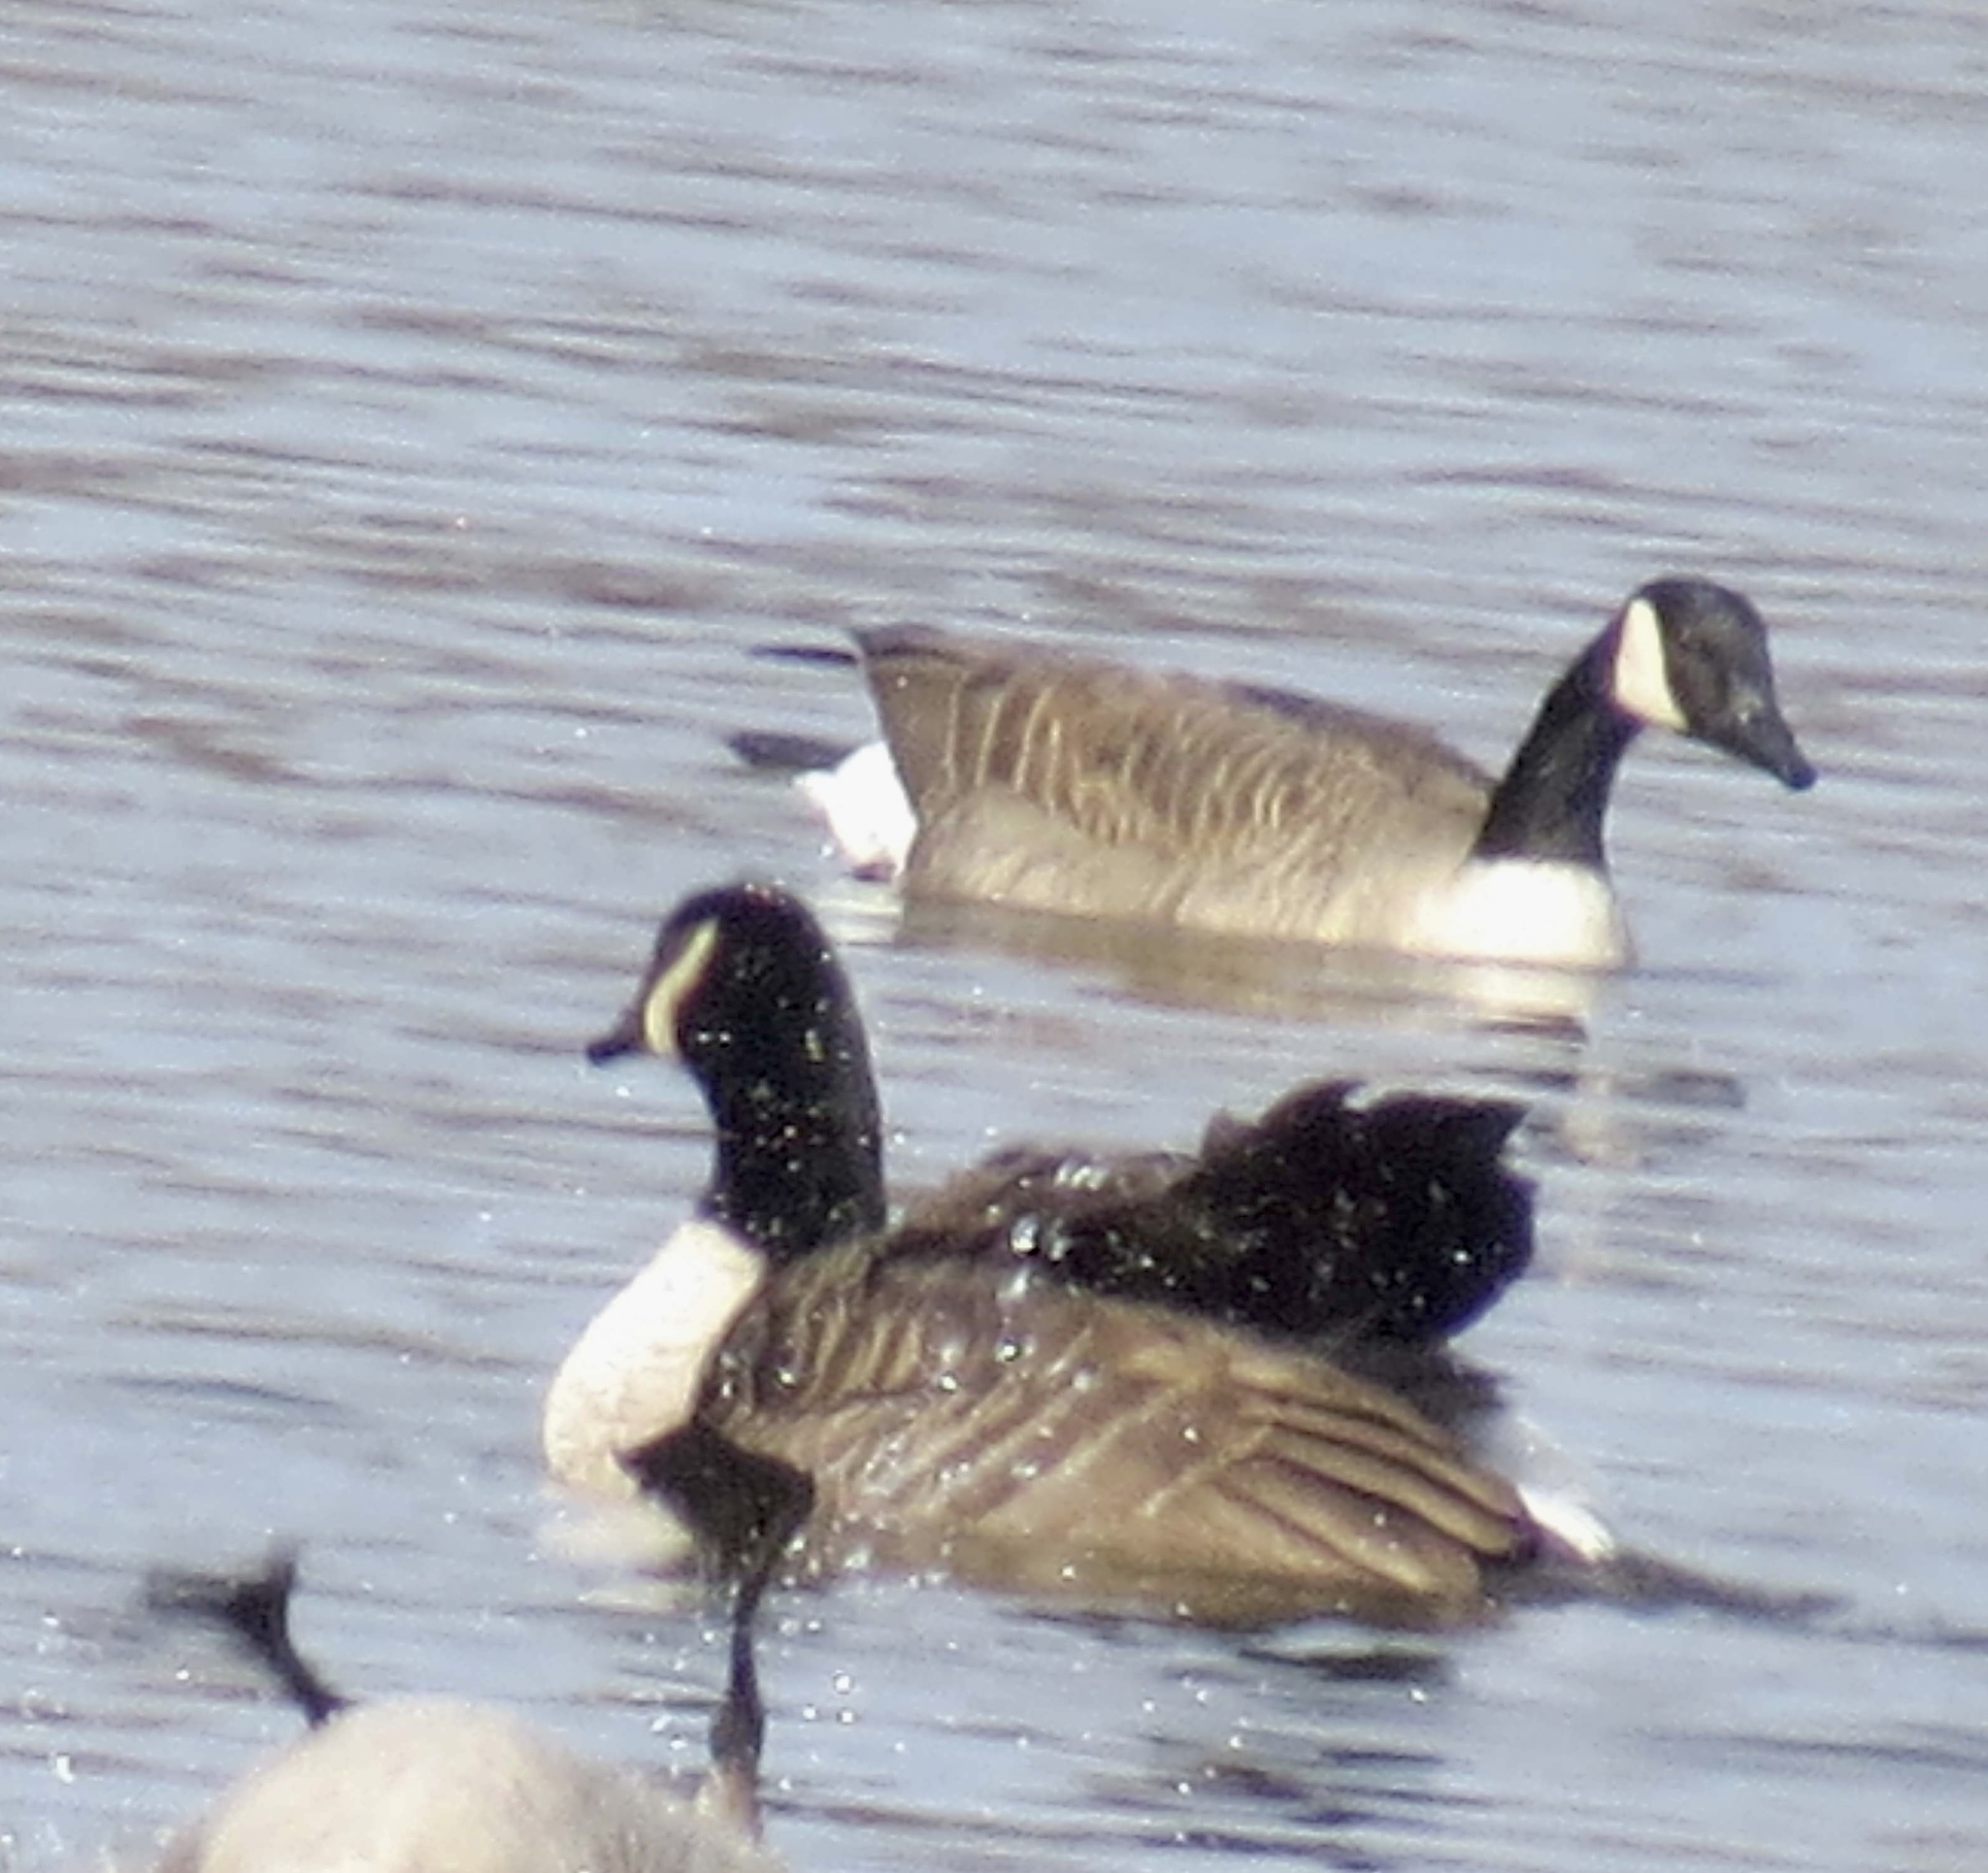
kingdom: Animalia
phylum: Chordata
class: Aves
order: Anseriformes
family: Anatidae
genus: Branta
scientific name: Branta canadensis
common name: Canada goose
